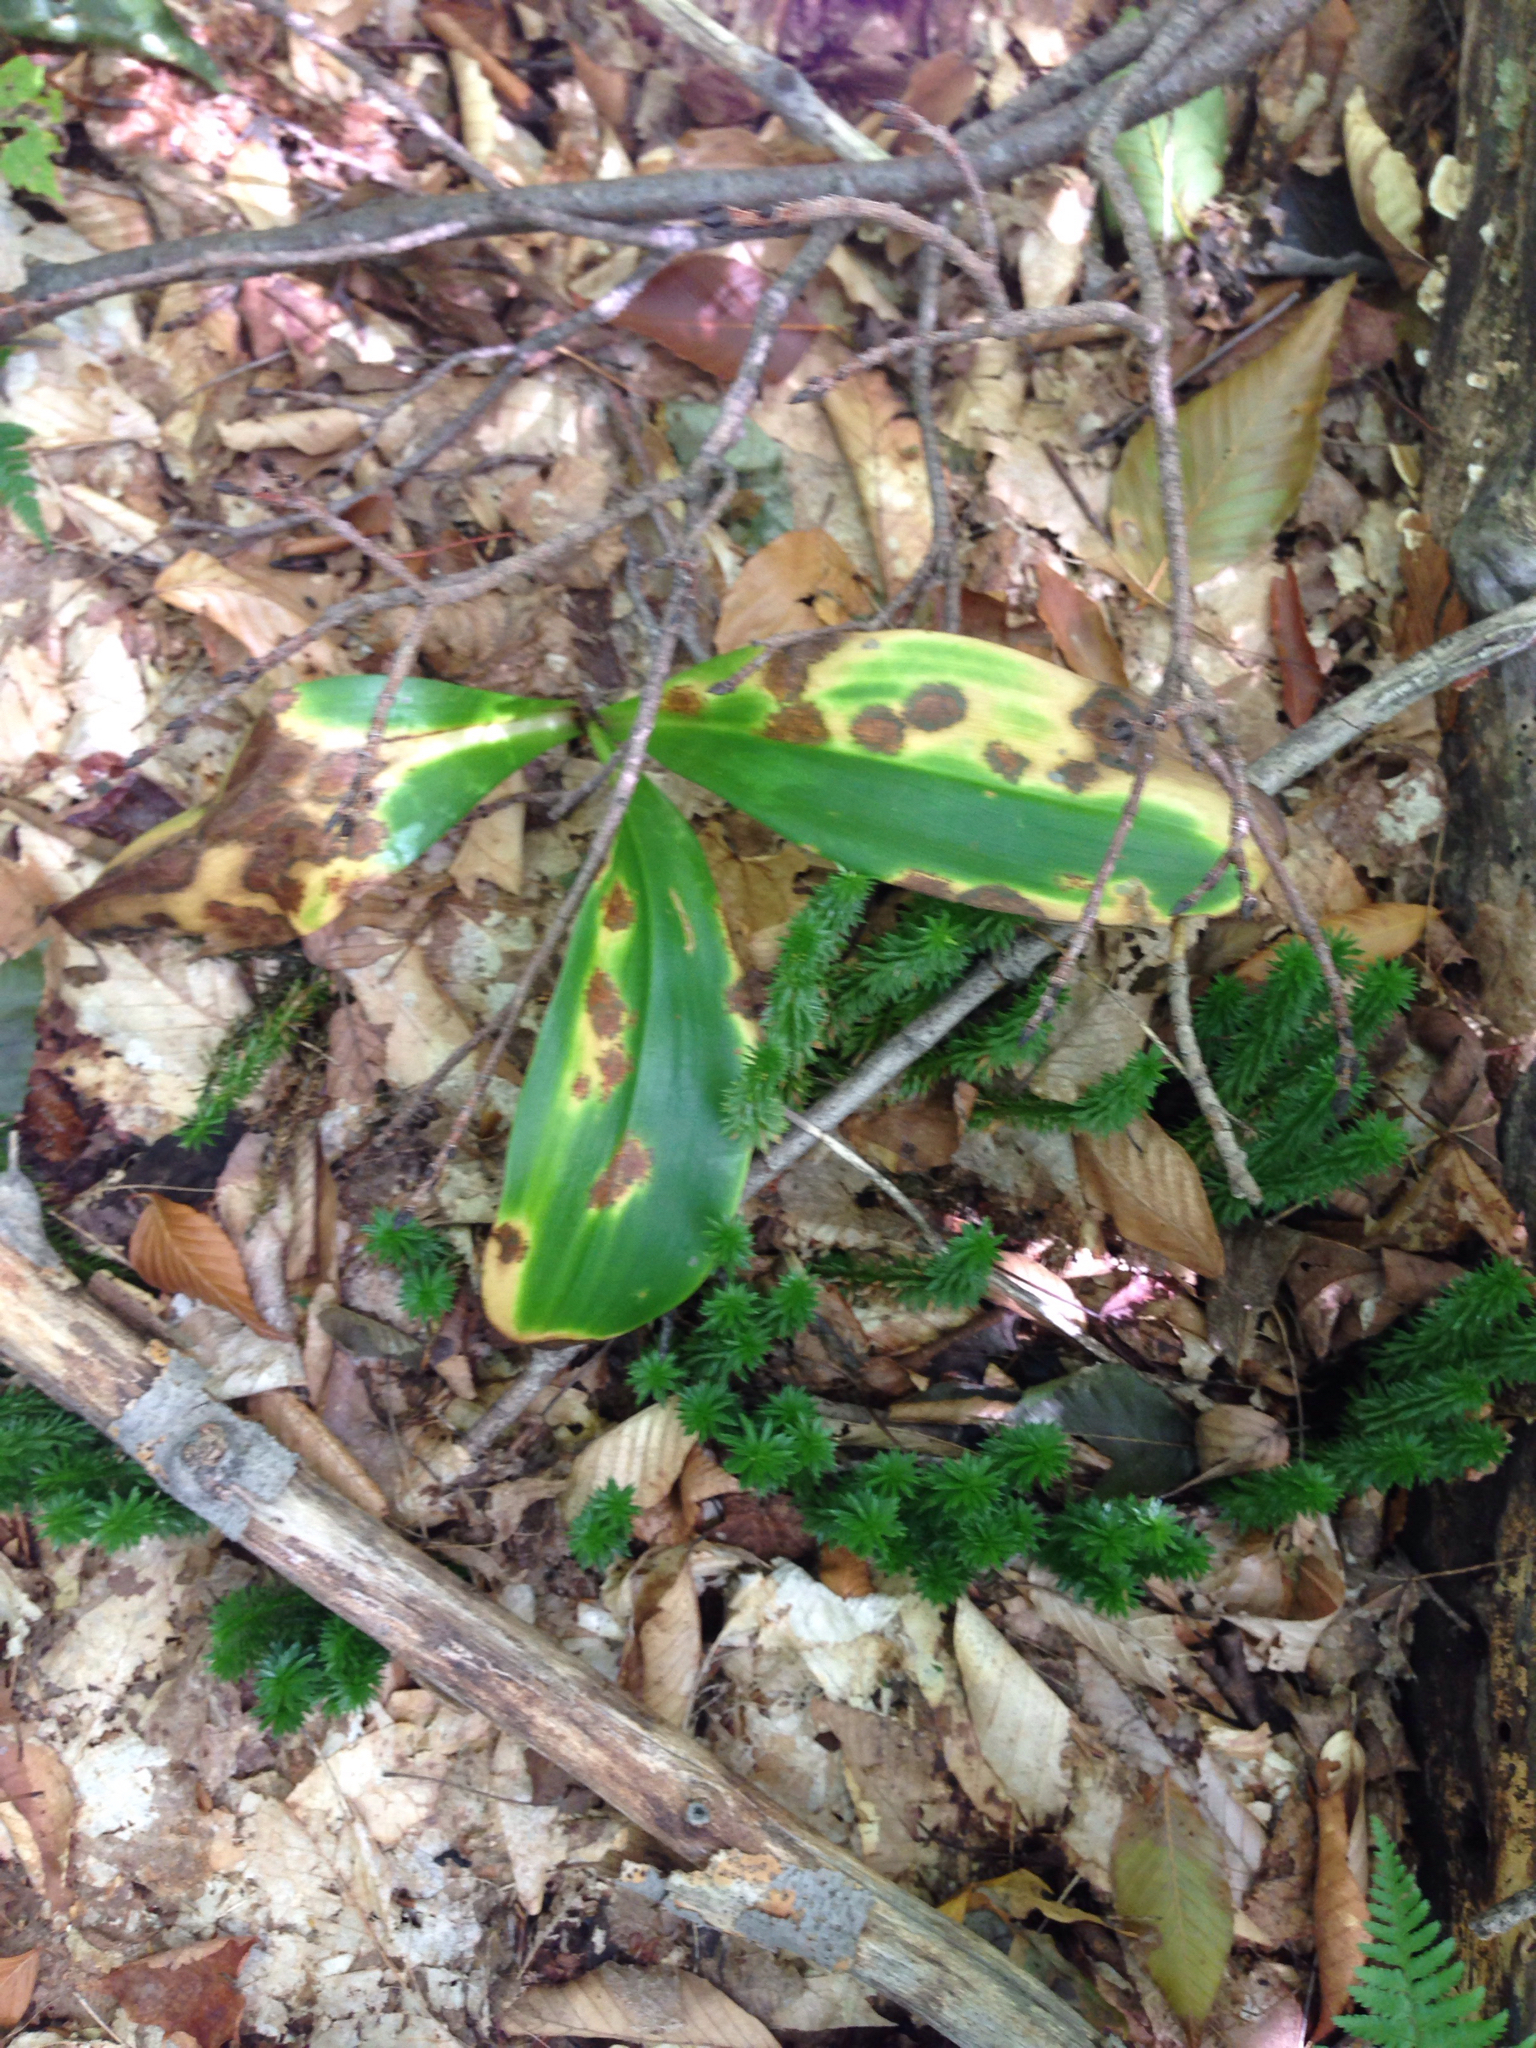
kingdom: Plantae
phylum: Tracheophyta
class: Liliopsida
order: Liliales
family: Liliaceae
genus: Clintonia
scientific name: Clintonia borealis
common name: Yellow clintonia
